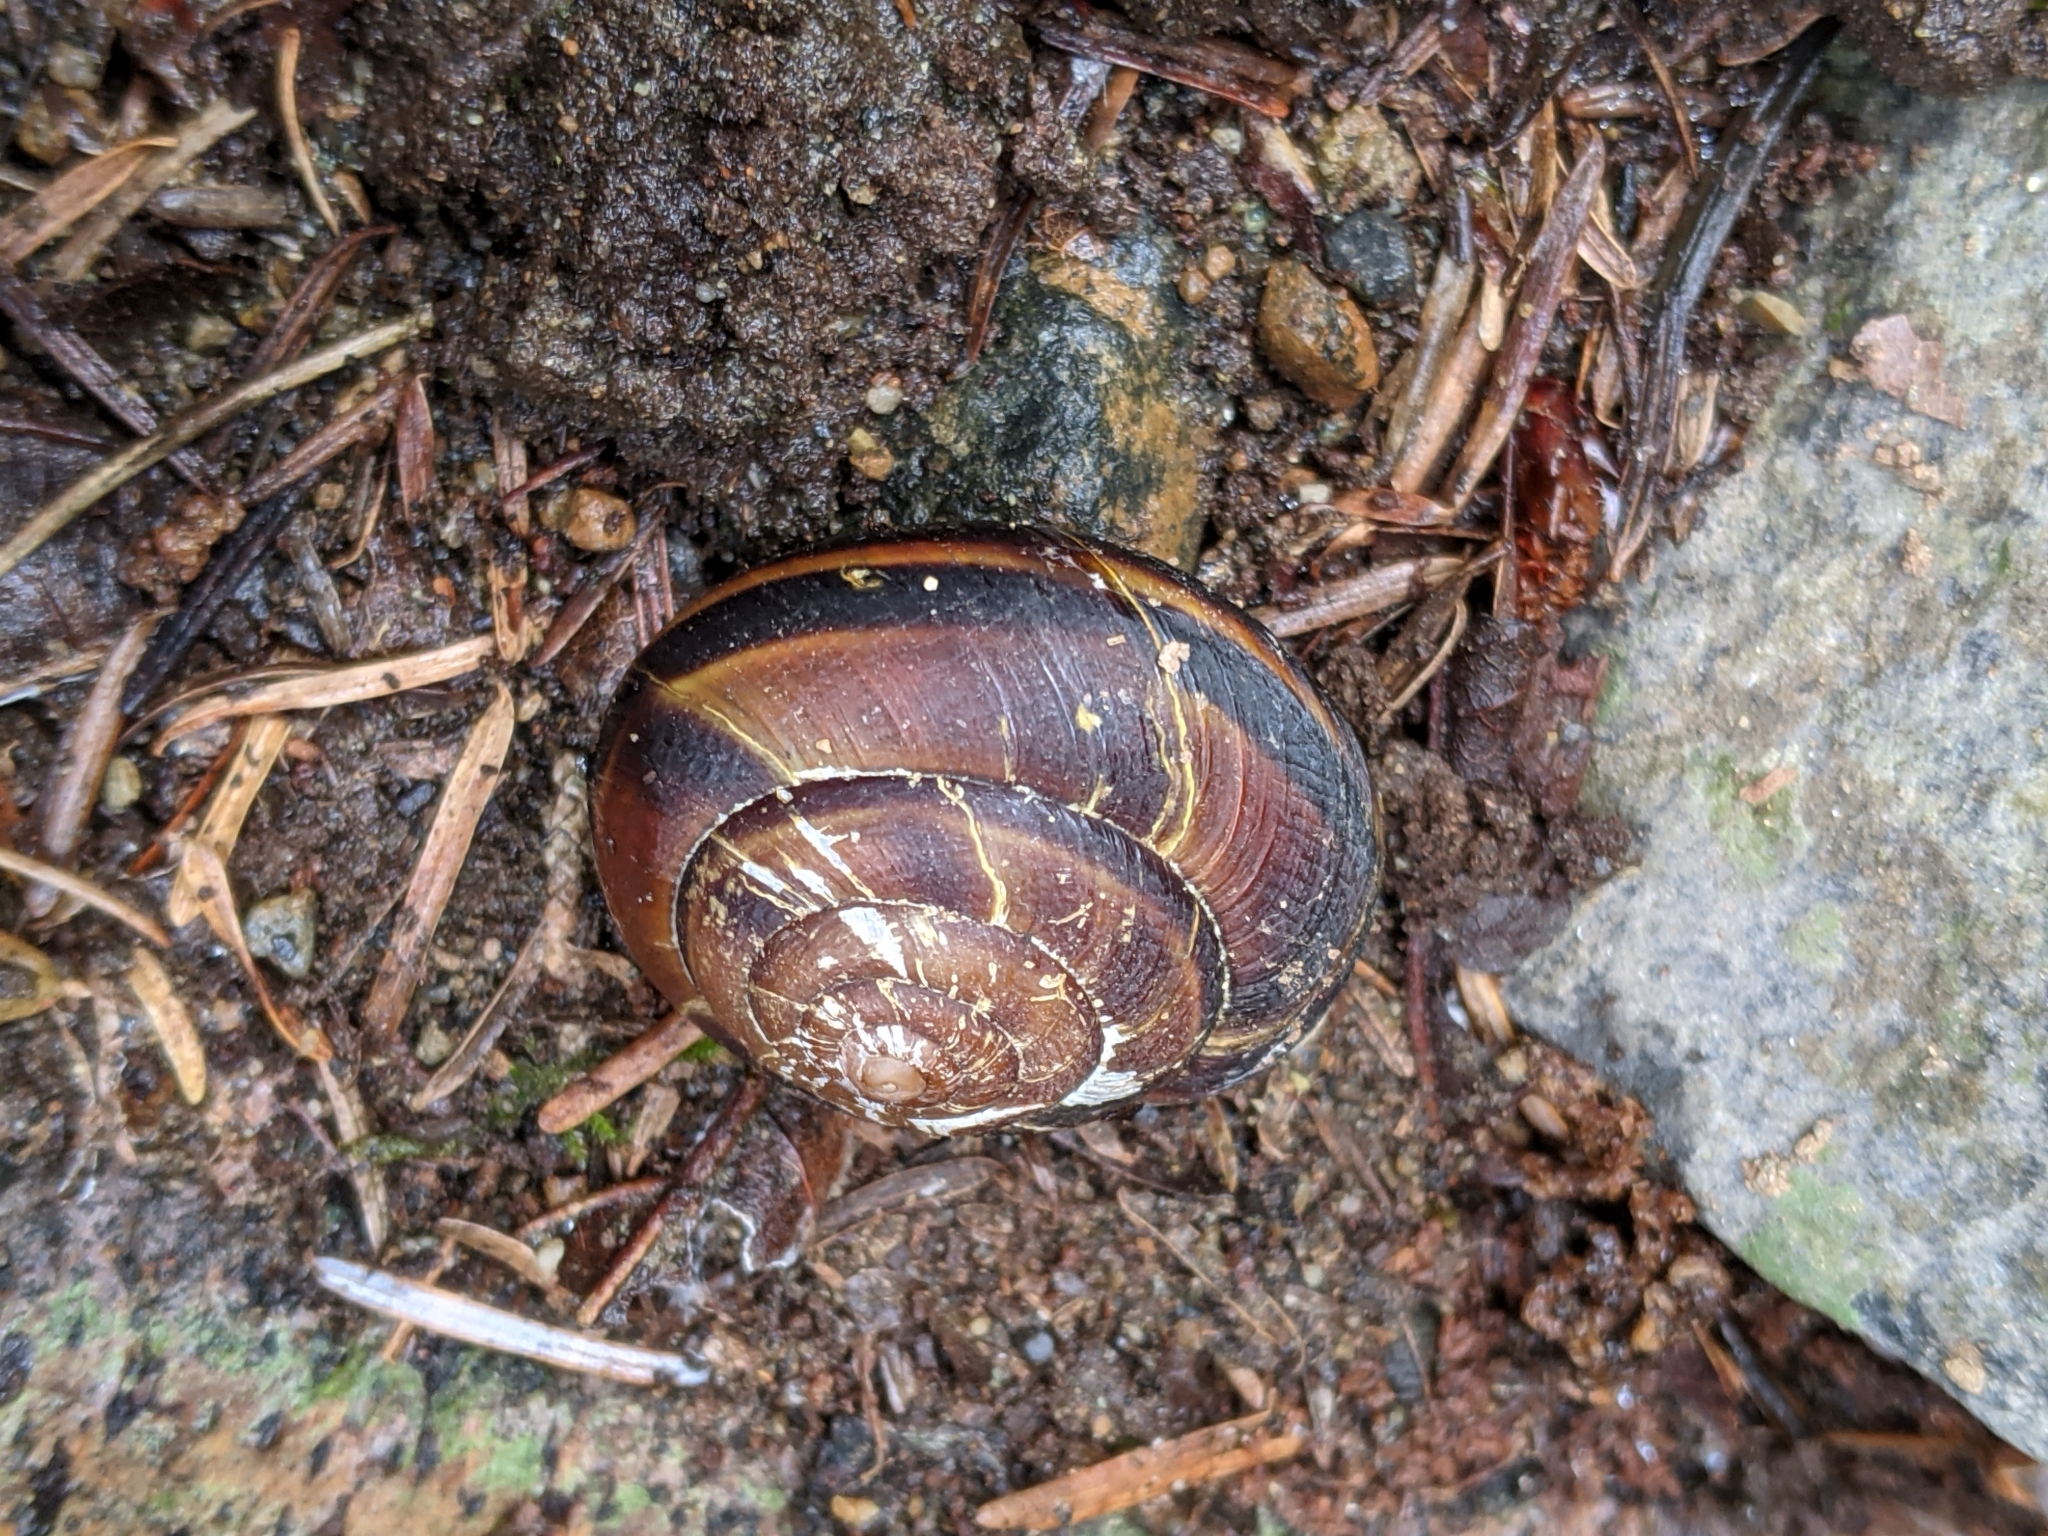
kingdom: Animalia
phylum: Mollusca
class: Gastropoda
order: Stylommatophora
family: Xanthonychidae
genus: Monadenia
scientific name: Monadenia fidelis
